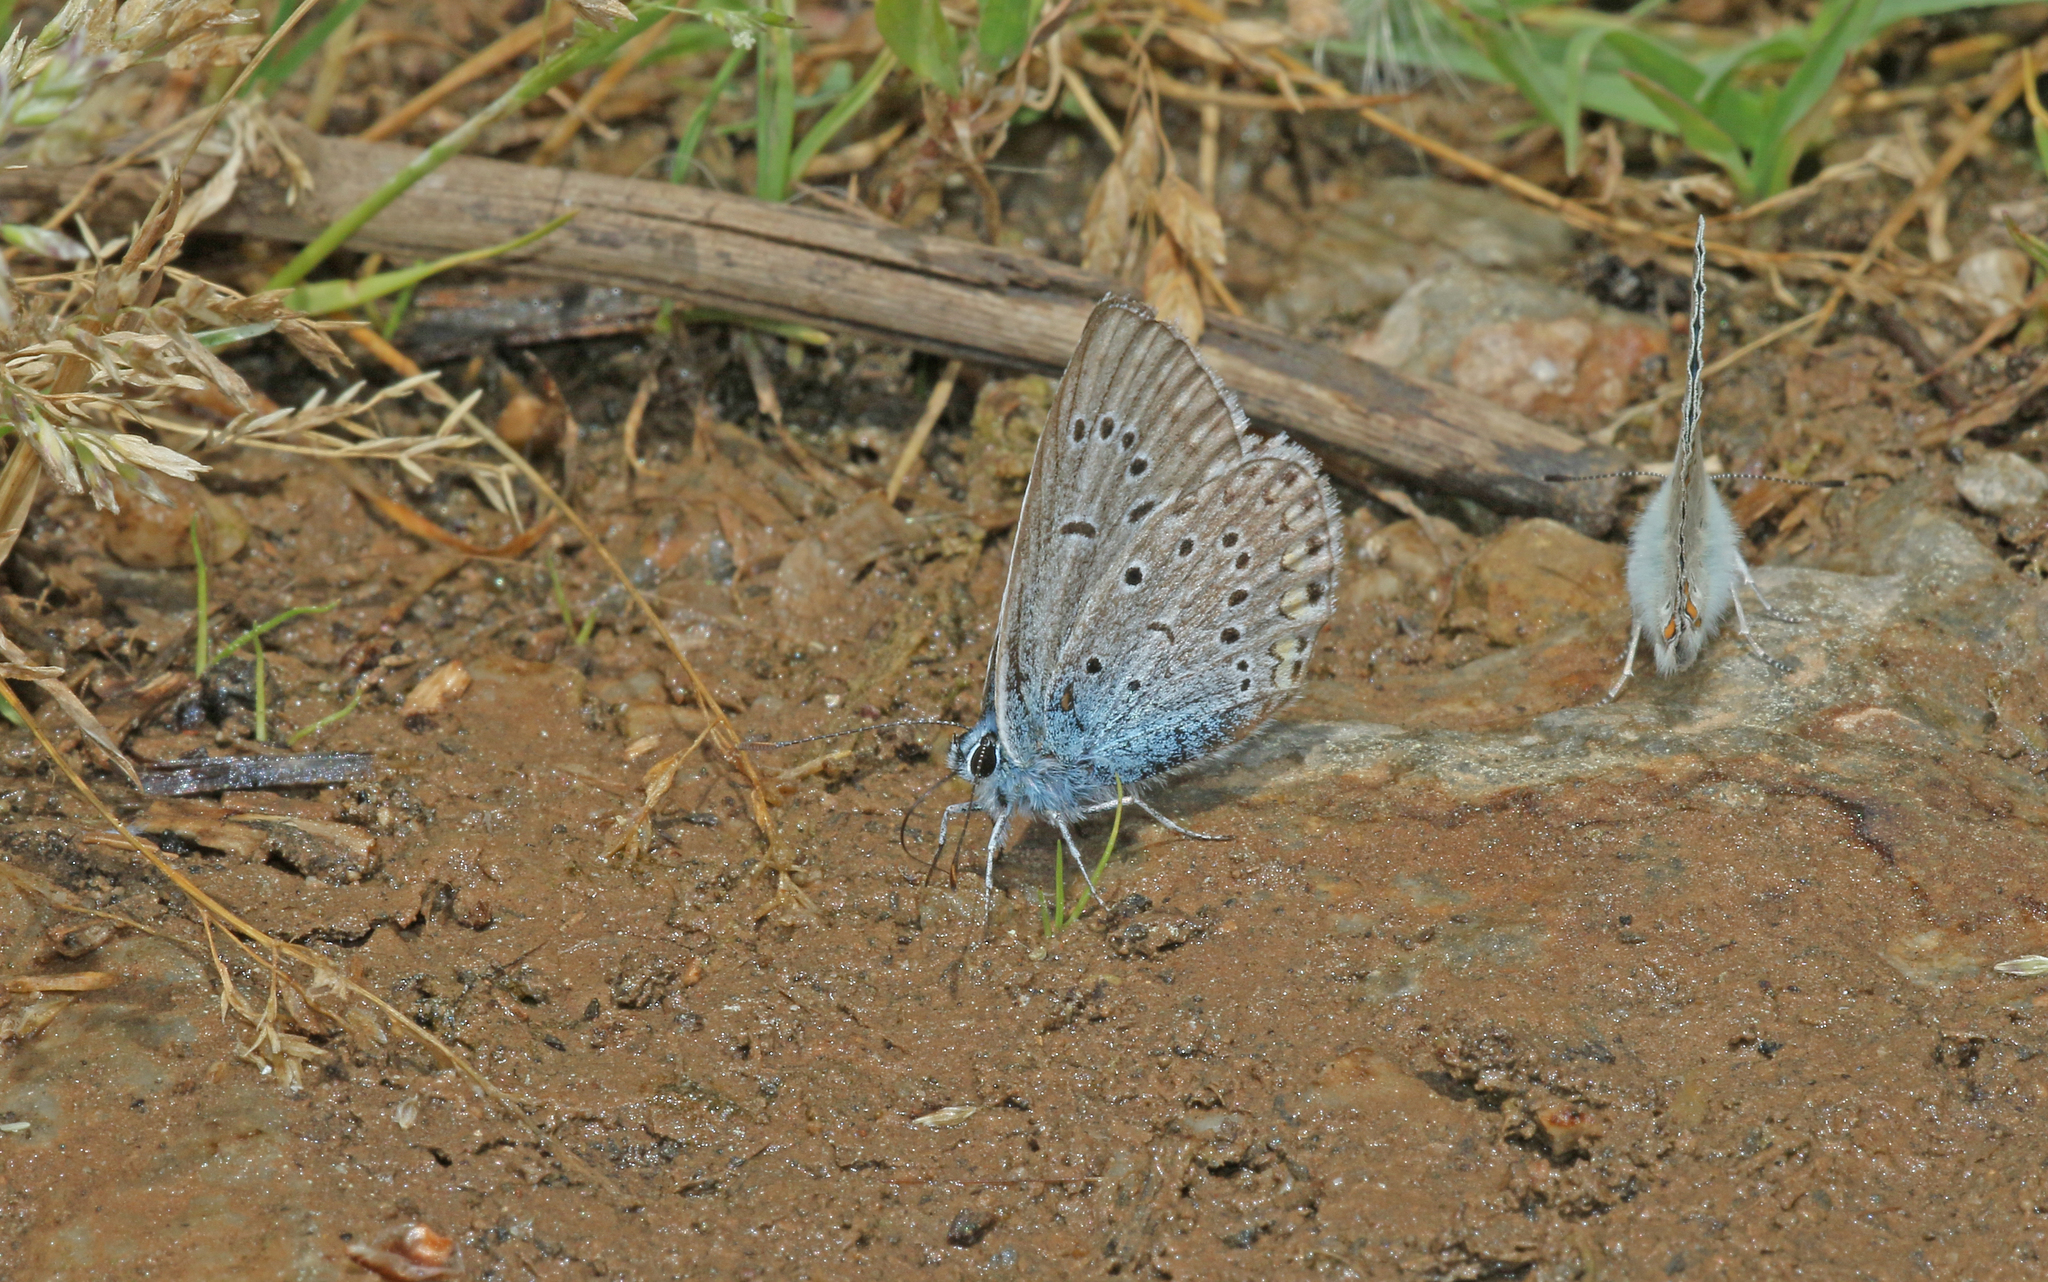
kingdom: Animalia
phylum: Arthropoda
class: Insecta
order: Lepidoptera
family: Lycaenidae
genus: Plebejus
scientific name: Plebejus amanda
